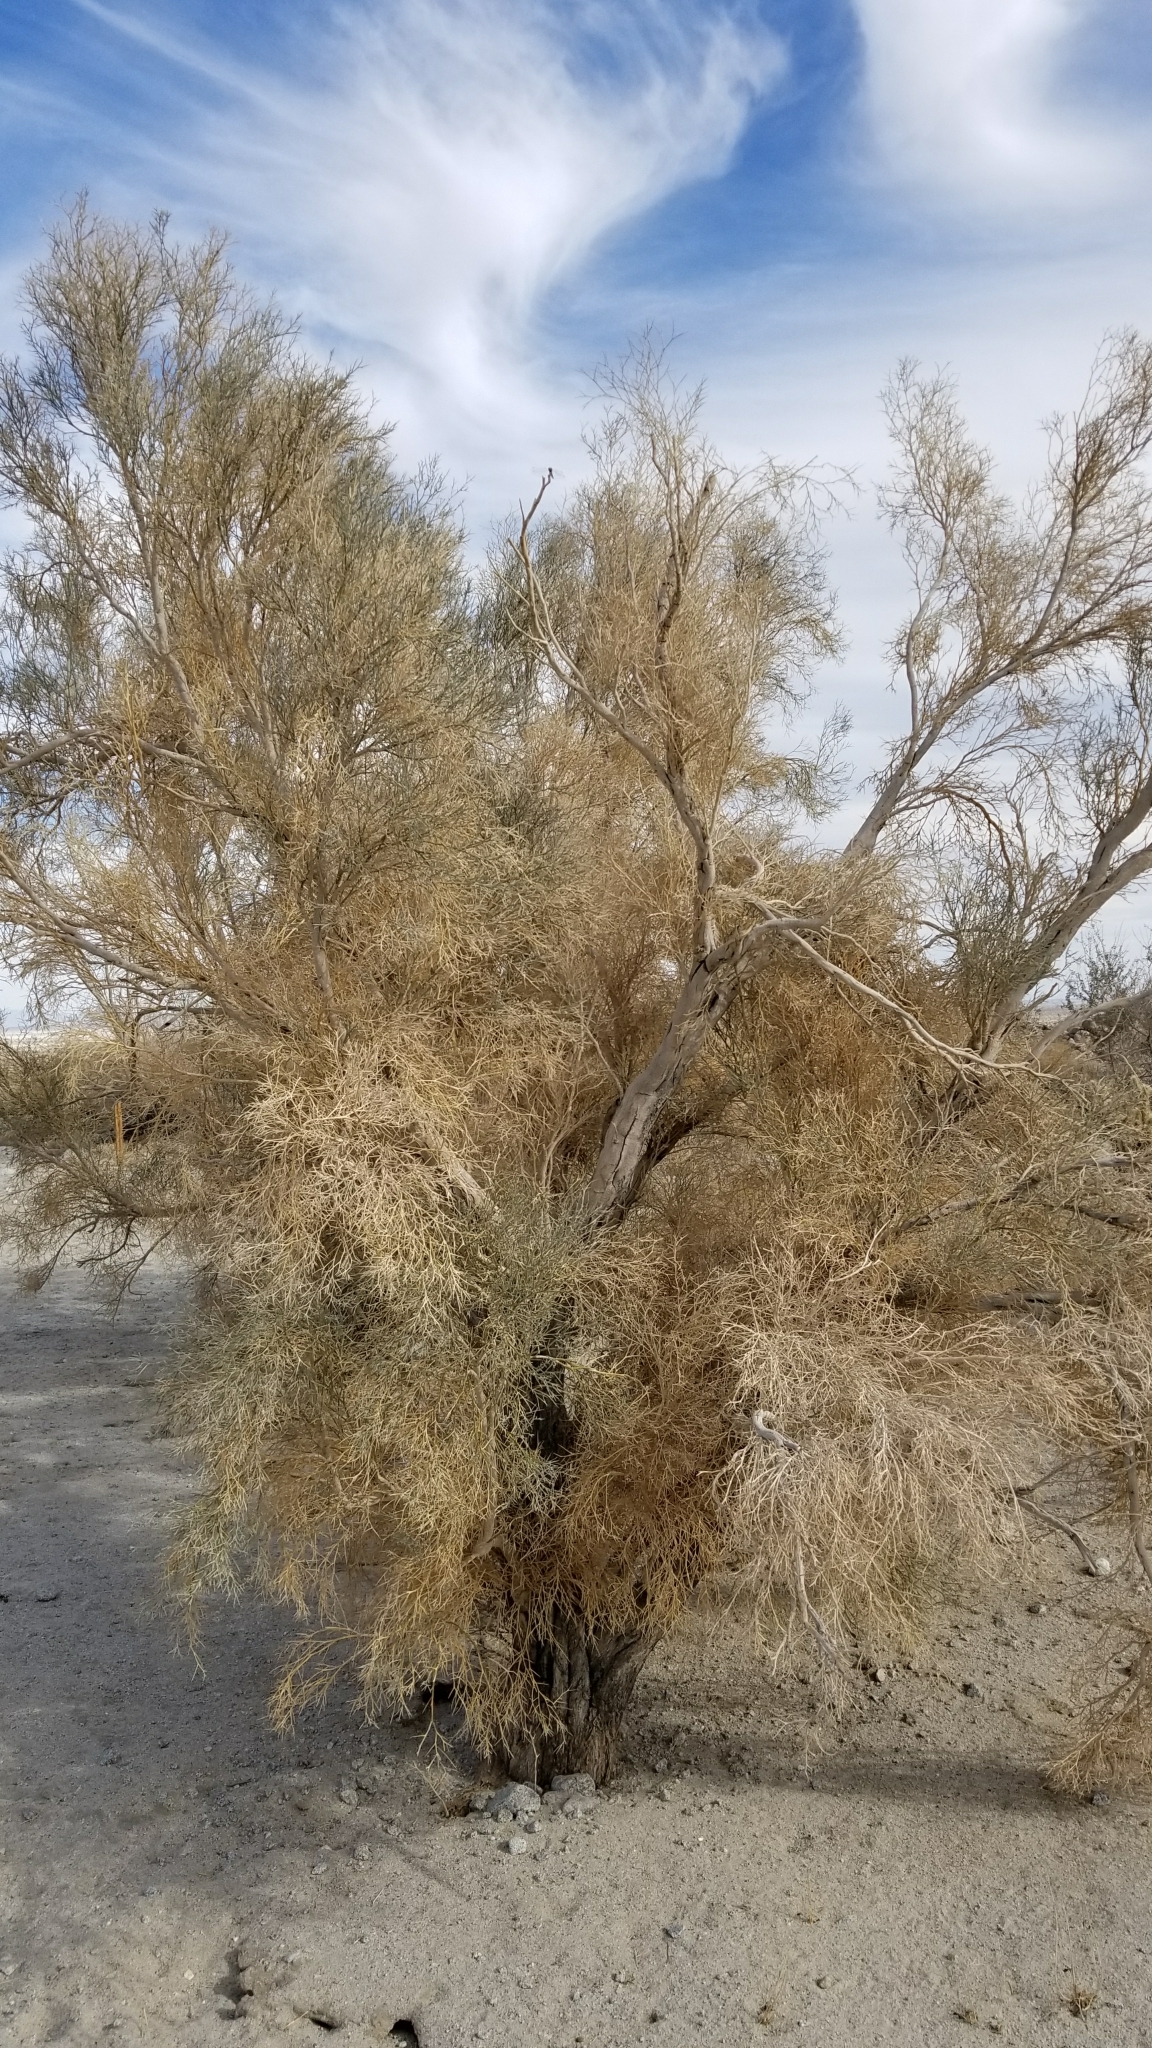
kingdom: Plantae
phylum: Tracheophyta
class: Magnoliopsida
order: Fabales
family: Fabaceae
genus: Psorothamnus
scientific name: Psorothamnus spinosus
